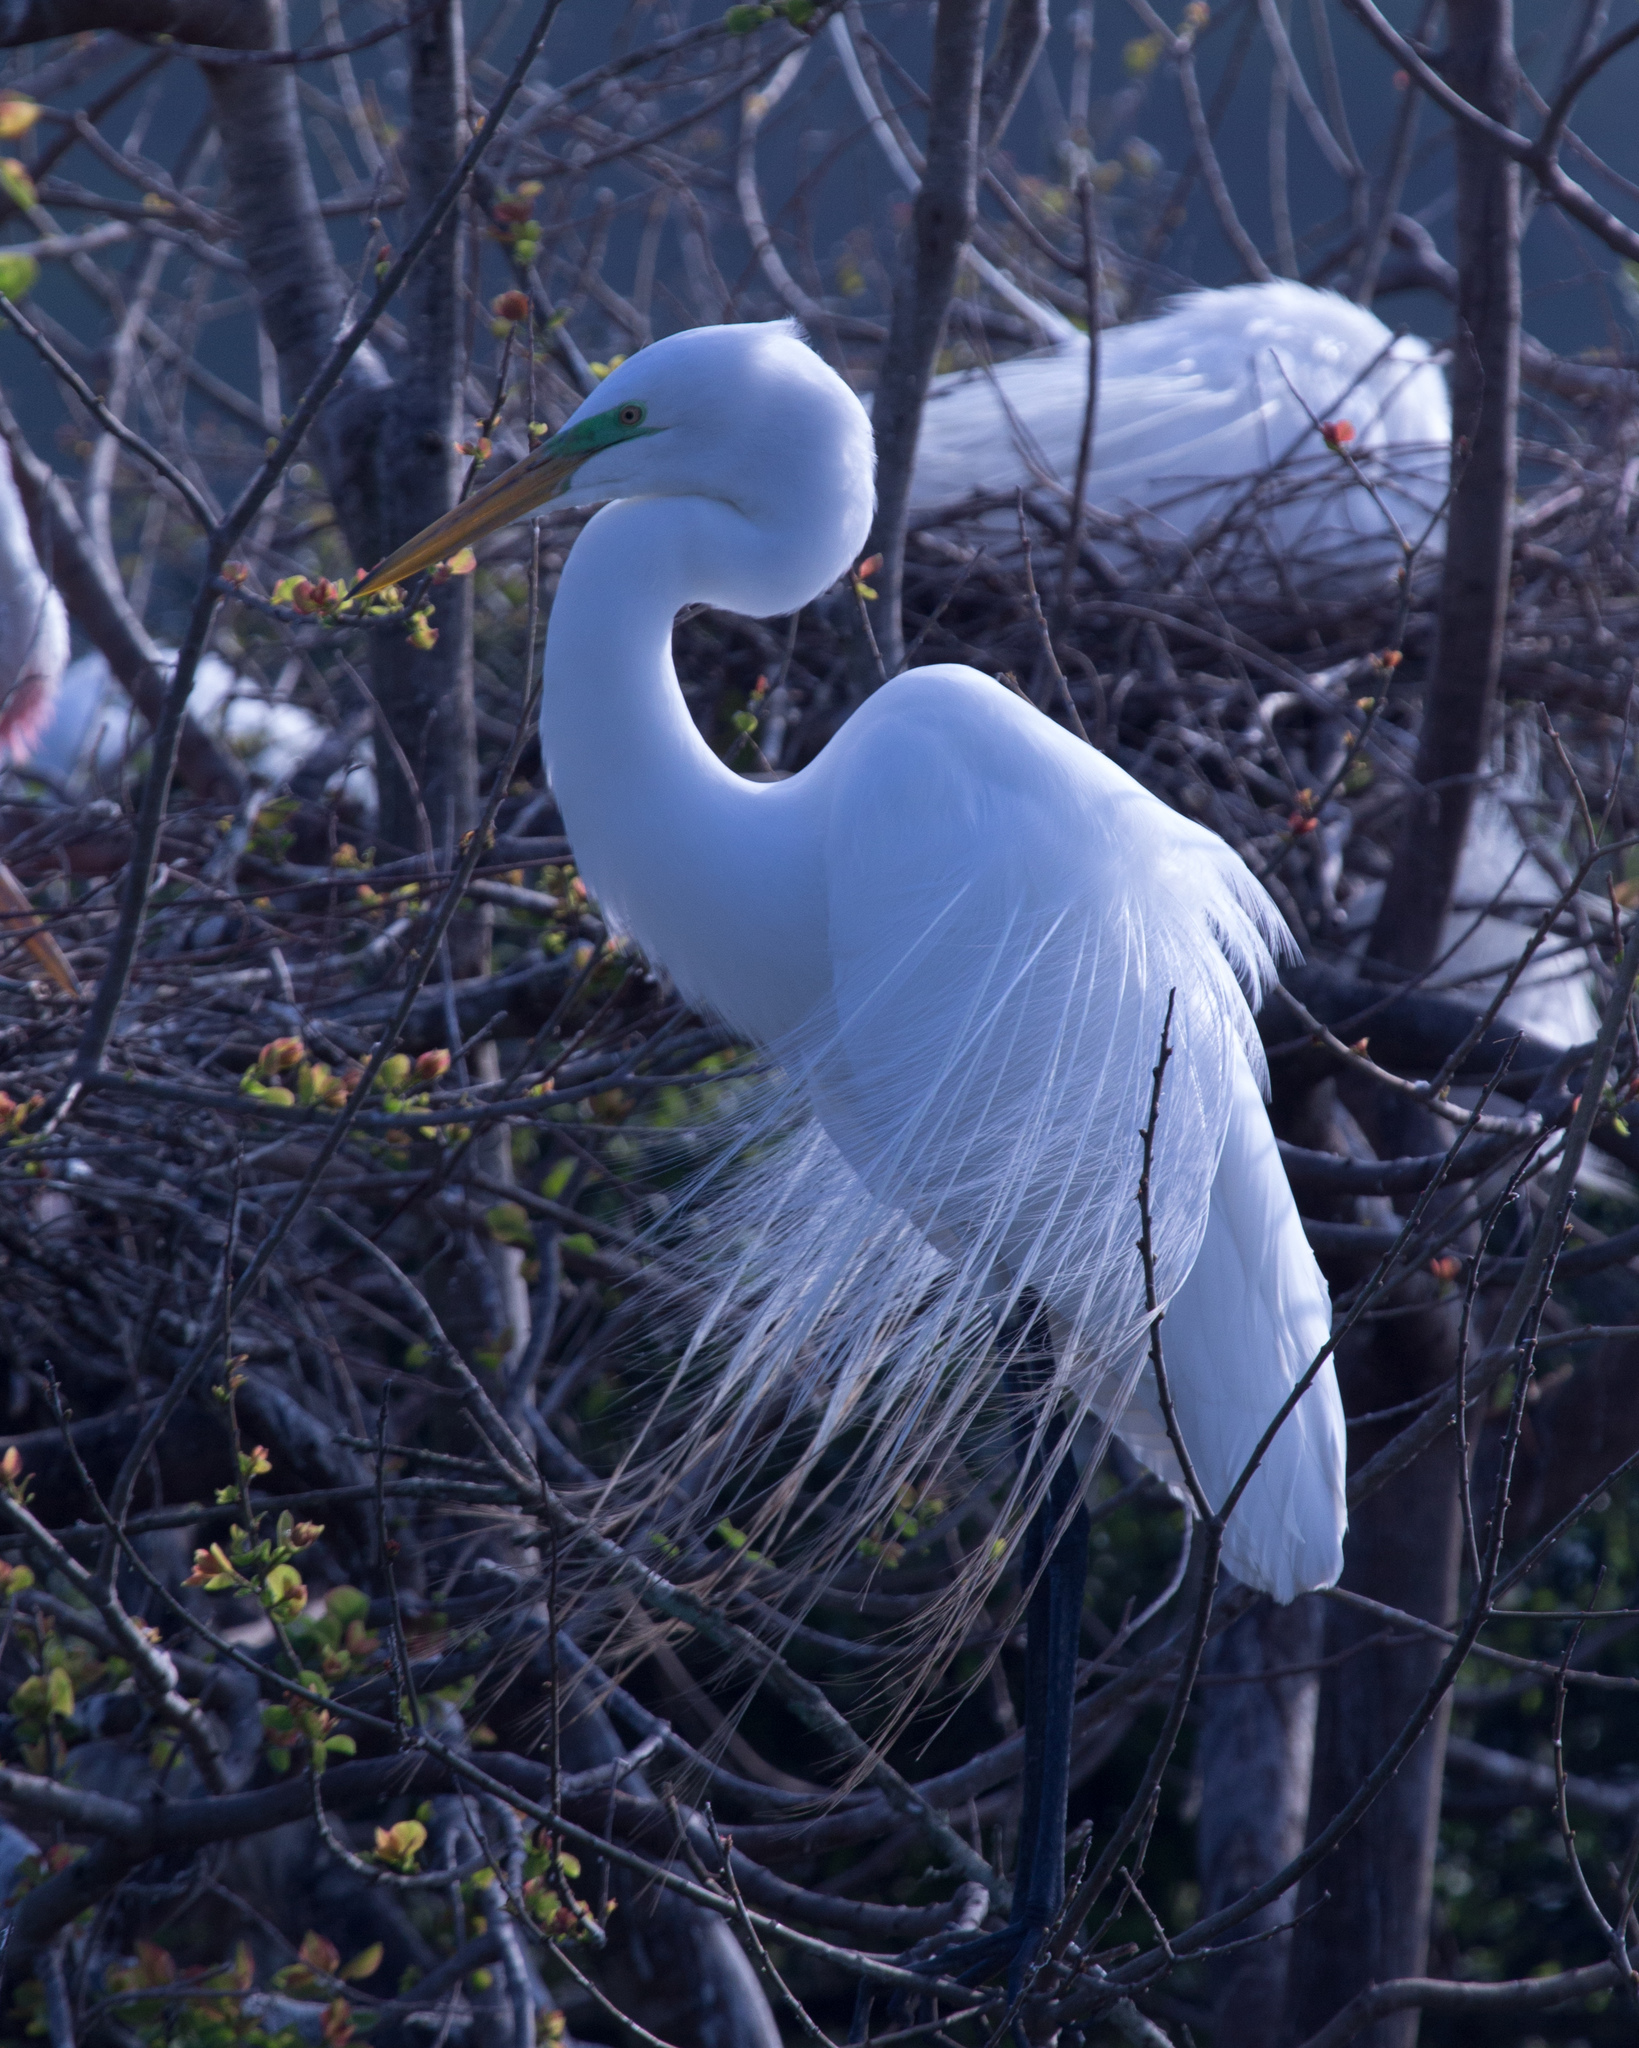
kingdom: Animalia
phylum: Chordata
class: Aves
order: Pelecaniformes
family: Ardeidae
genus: Ardea
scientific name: Ardea alba
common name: Great egret
